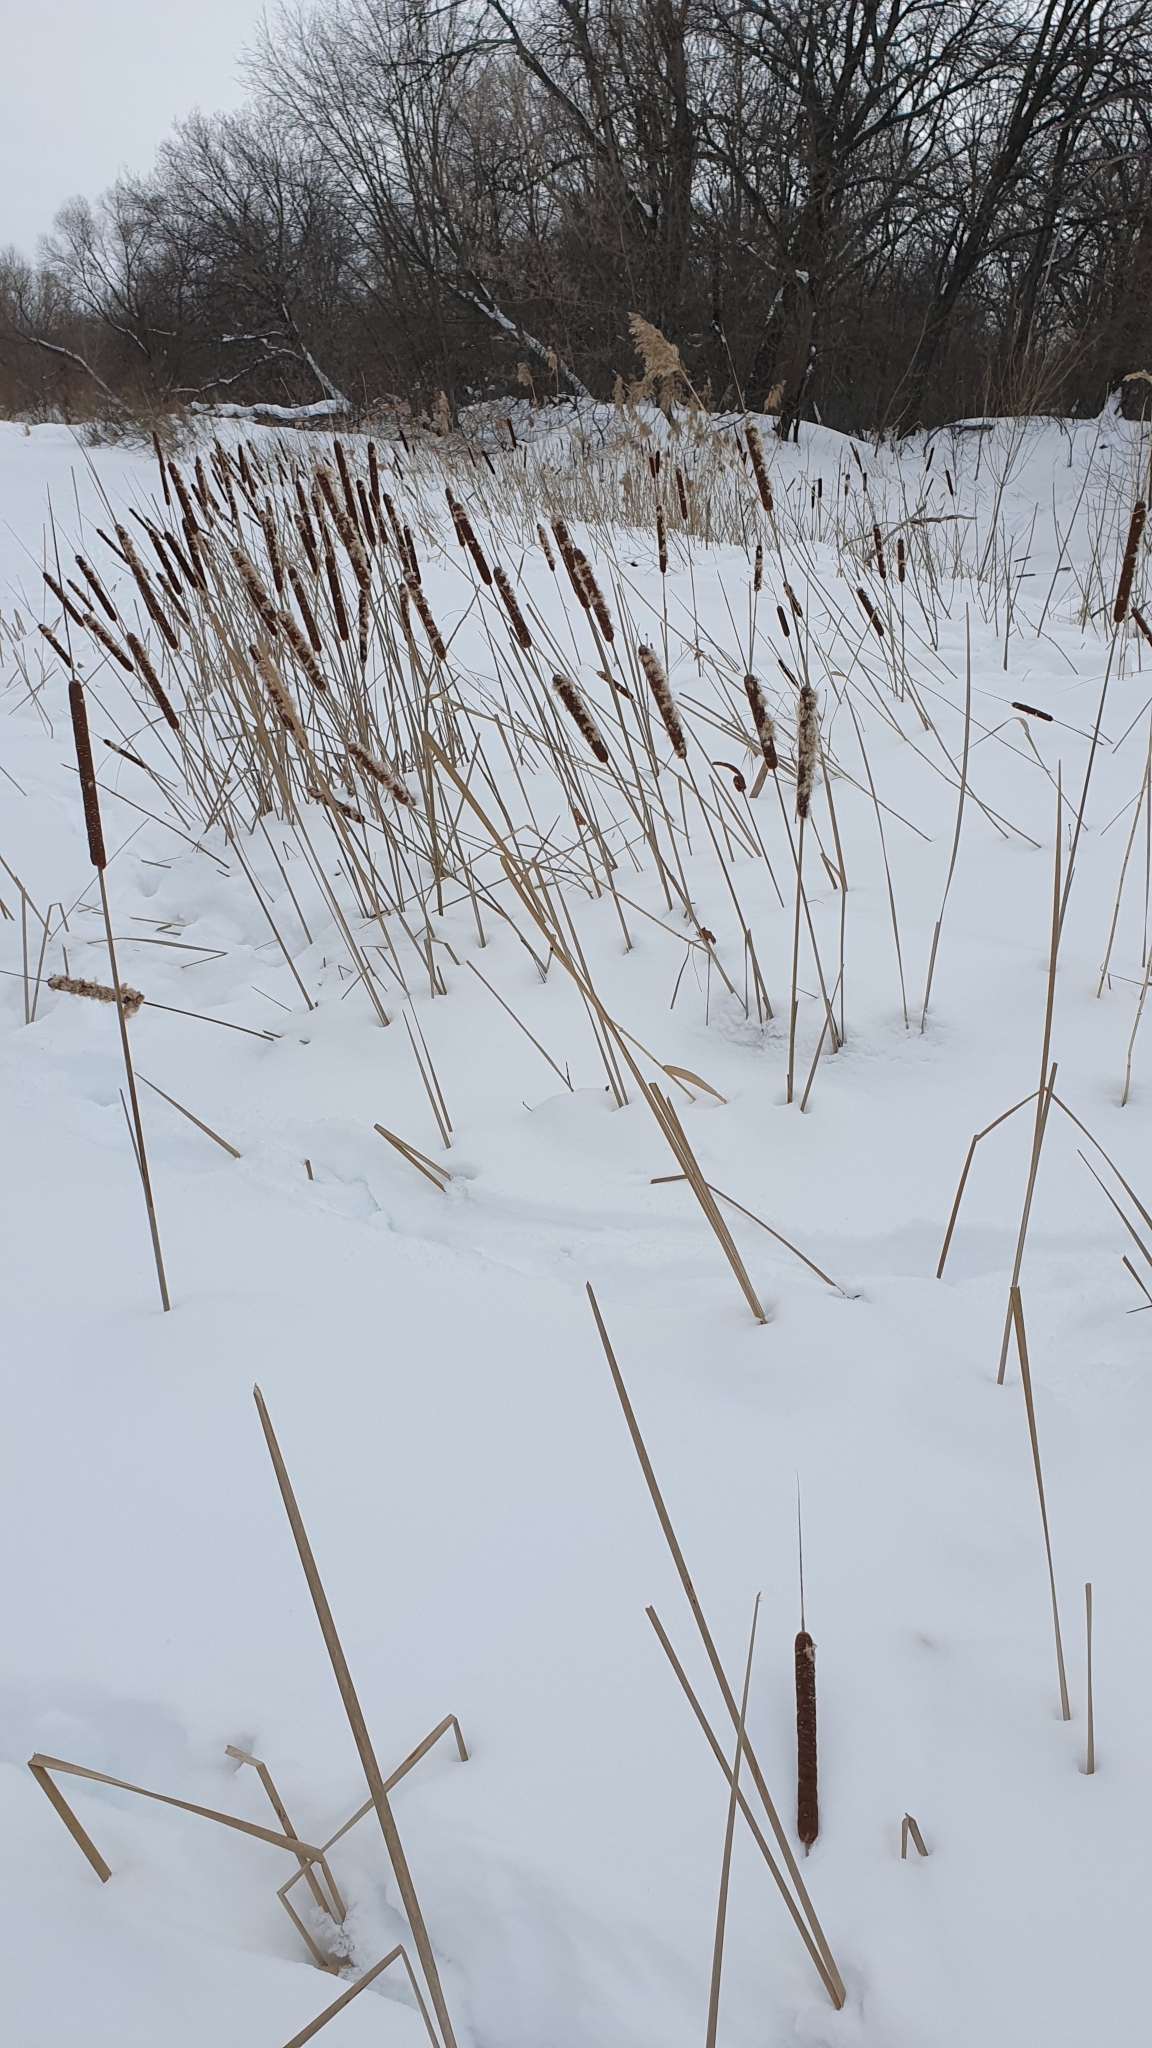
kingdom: Plantae
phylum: Tracheophyta
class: Liliopsida
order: Poales
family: Typhaceae
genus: Typha
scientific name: Typha angustifolia
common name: Lesser bulrush
